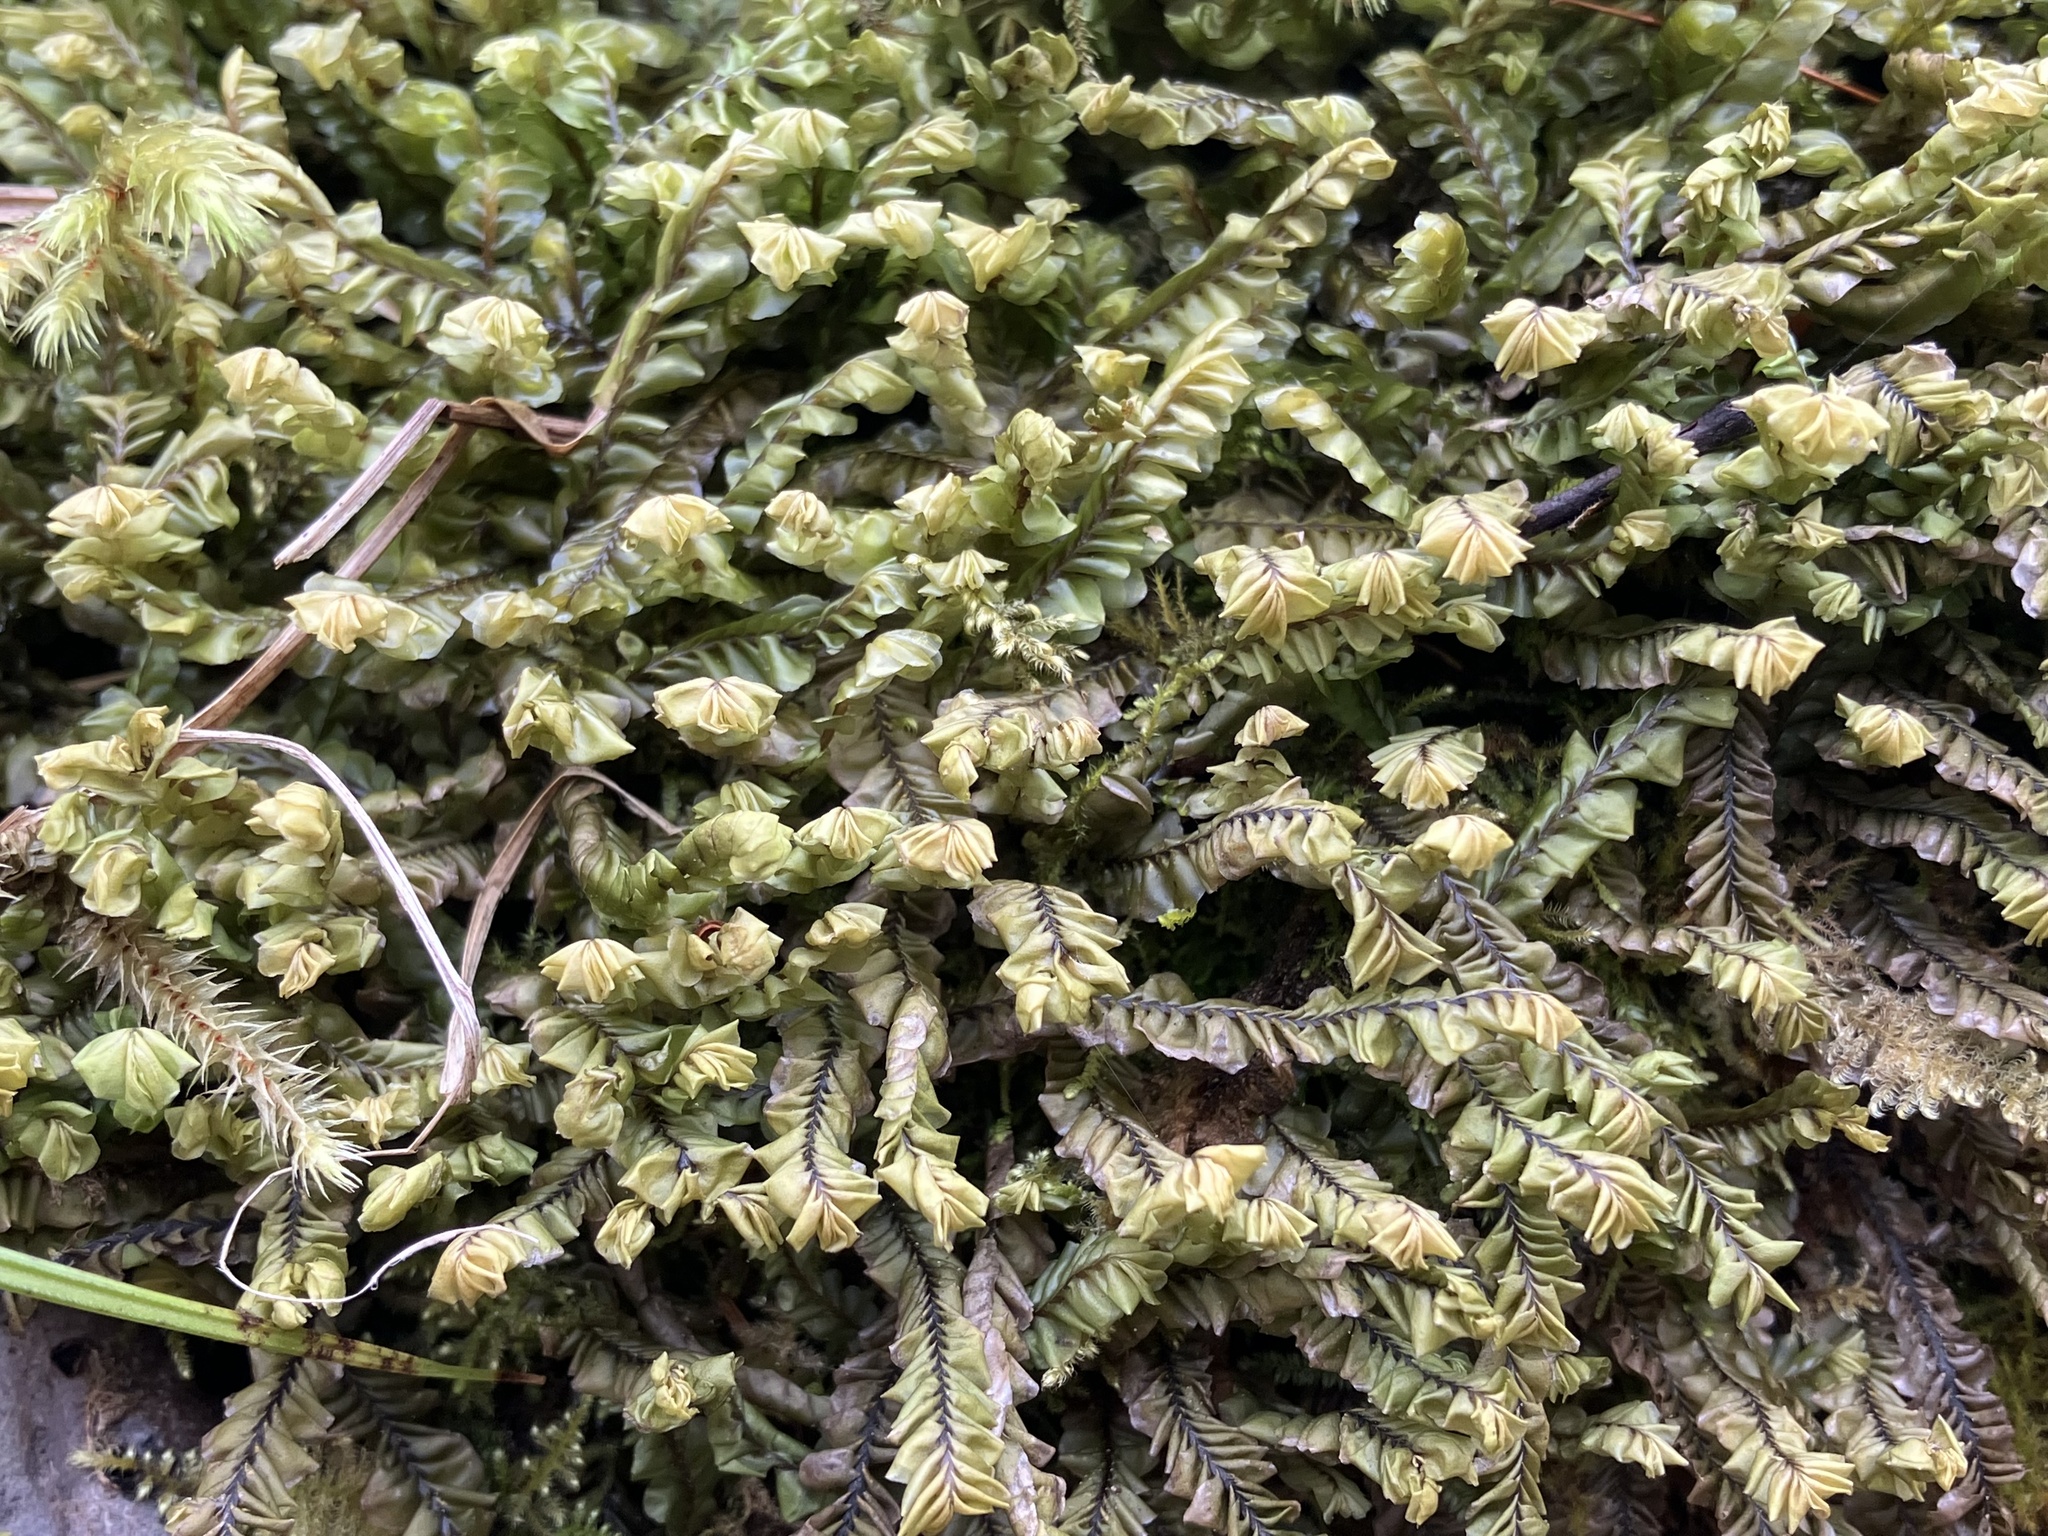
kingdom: Plantae
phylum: Marchantiophyta
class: Jungermanniopsida
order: Jungermanniales
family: Plagiochilaceae
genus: Plagiochila
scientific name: Plagiochila asplenioides
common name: Greater featherwort
